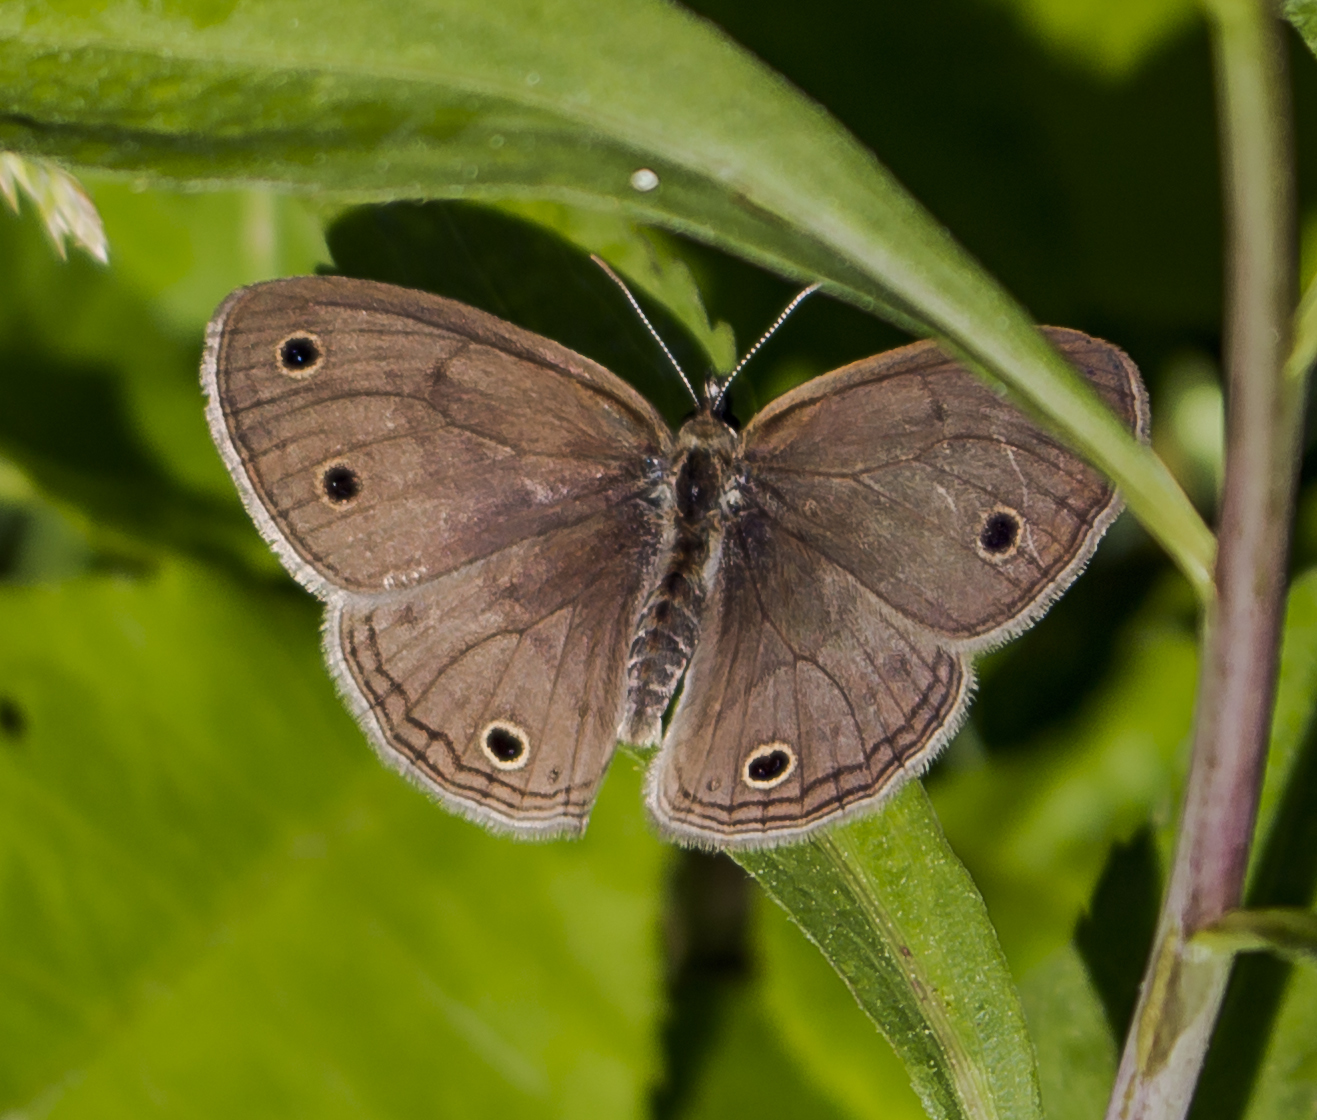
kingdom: Animalia
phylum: Arthropoda
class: Insecta
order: Lepidoptera
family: Nymphalidae
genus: Euptychia
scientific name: Euptychia cymela
